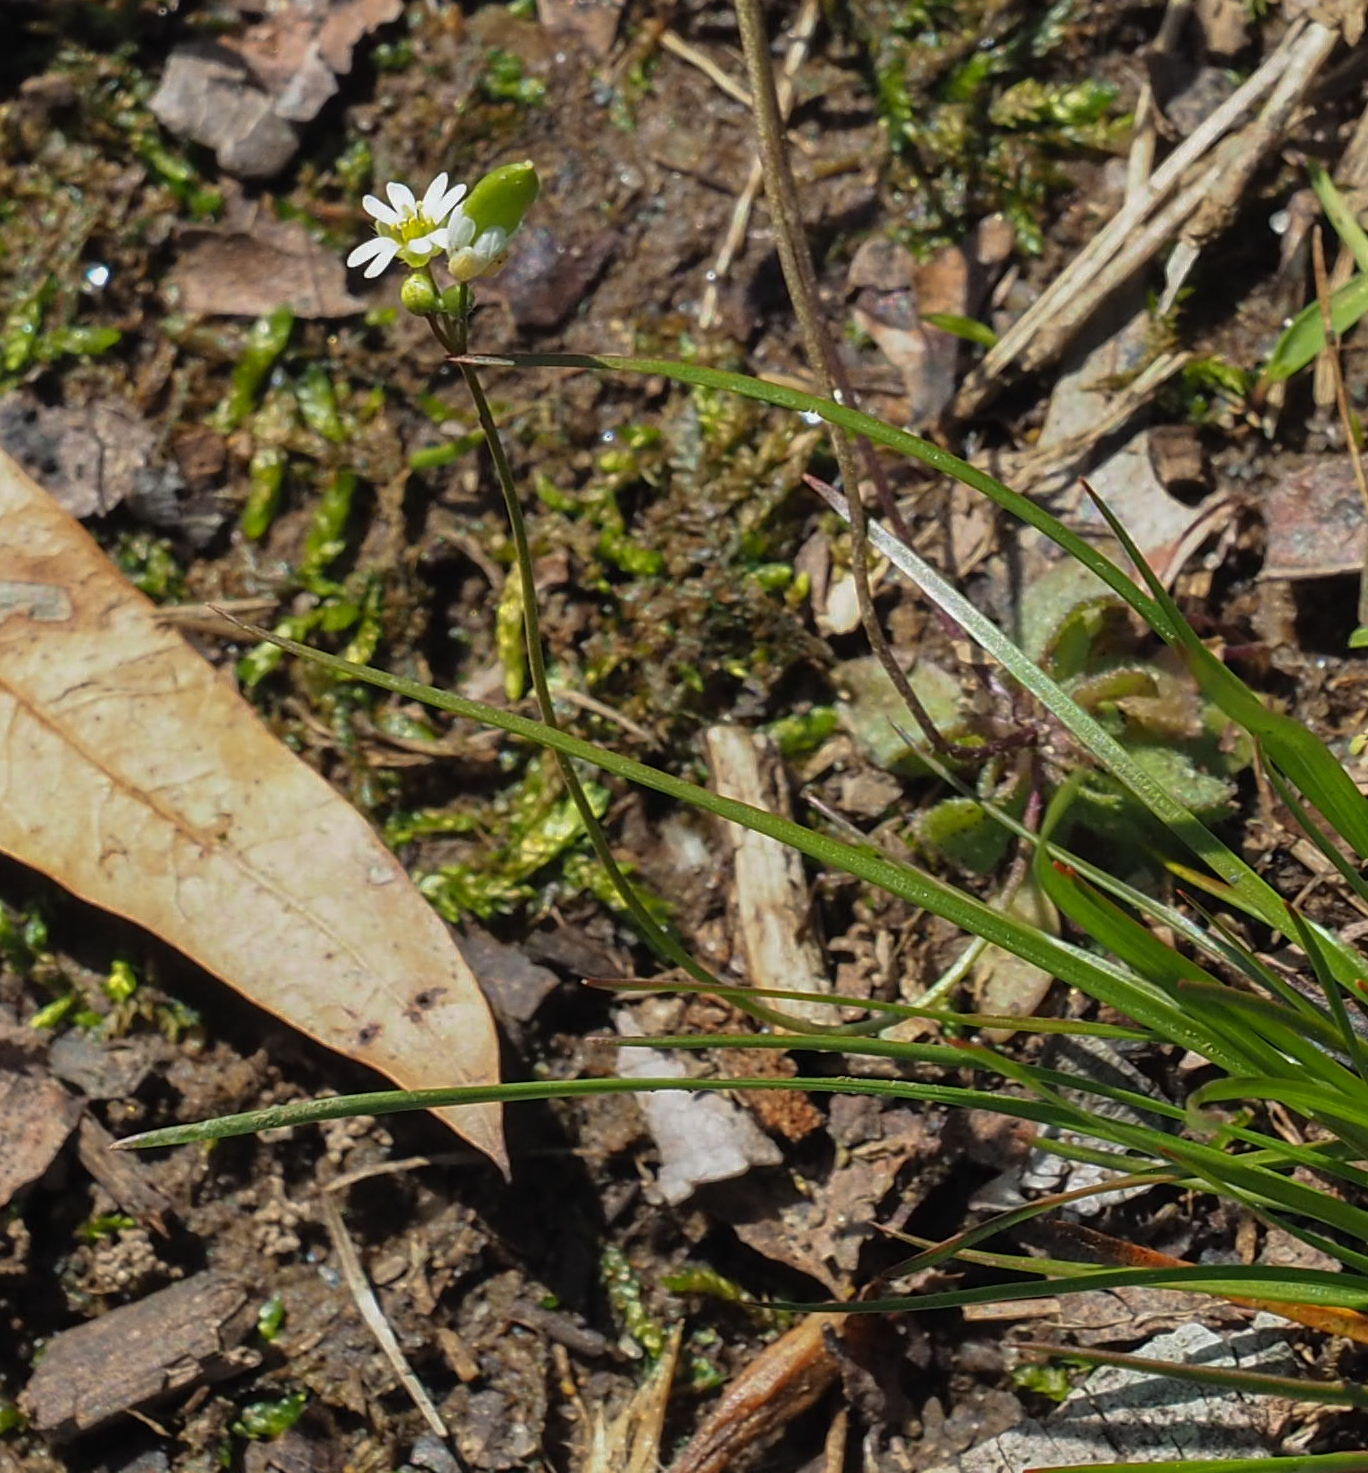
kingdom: Plantae
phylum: Tracheophyta
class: Magnoliopsida
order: Brassicales
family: Brassicaceae
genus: Draba
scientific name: Draba verna
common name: Spring draba
